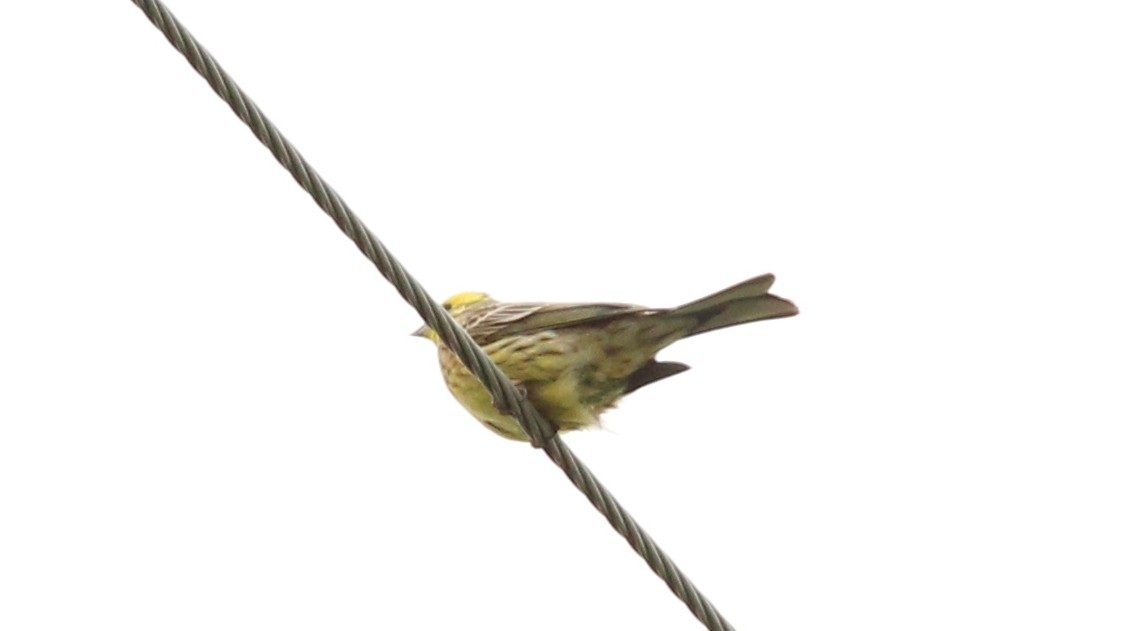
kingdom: Animalia
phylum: Chordata
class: Aves
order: Passeriformes
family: Emberizidae
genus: Emberiza
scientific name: Emberiza citrinella
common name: Yellowhammer
